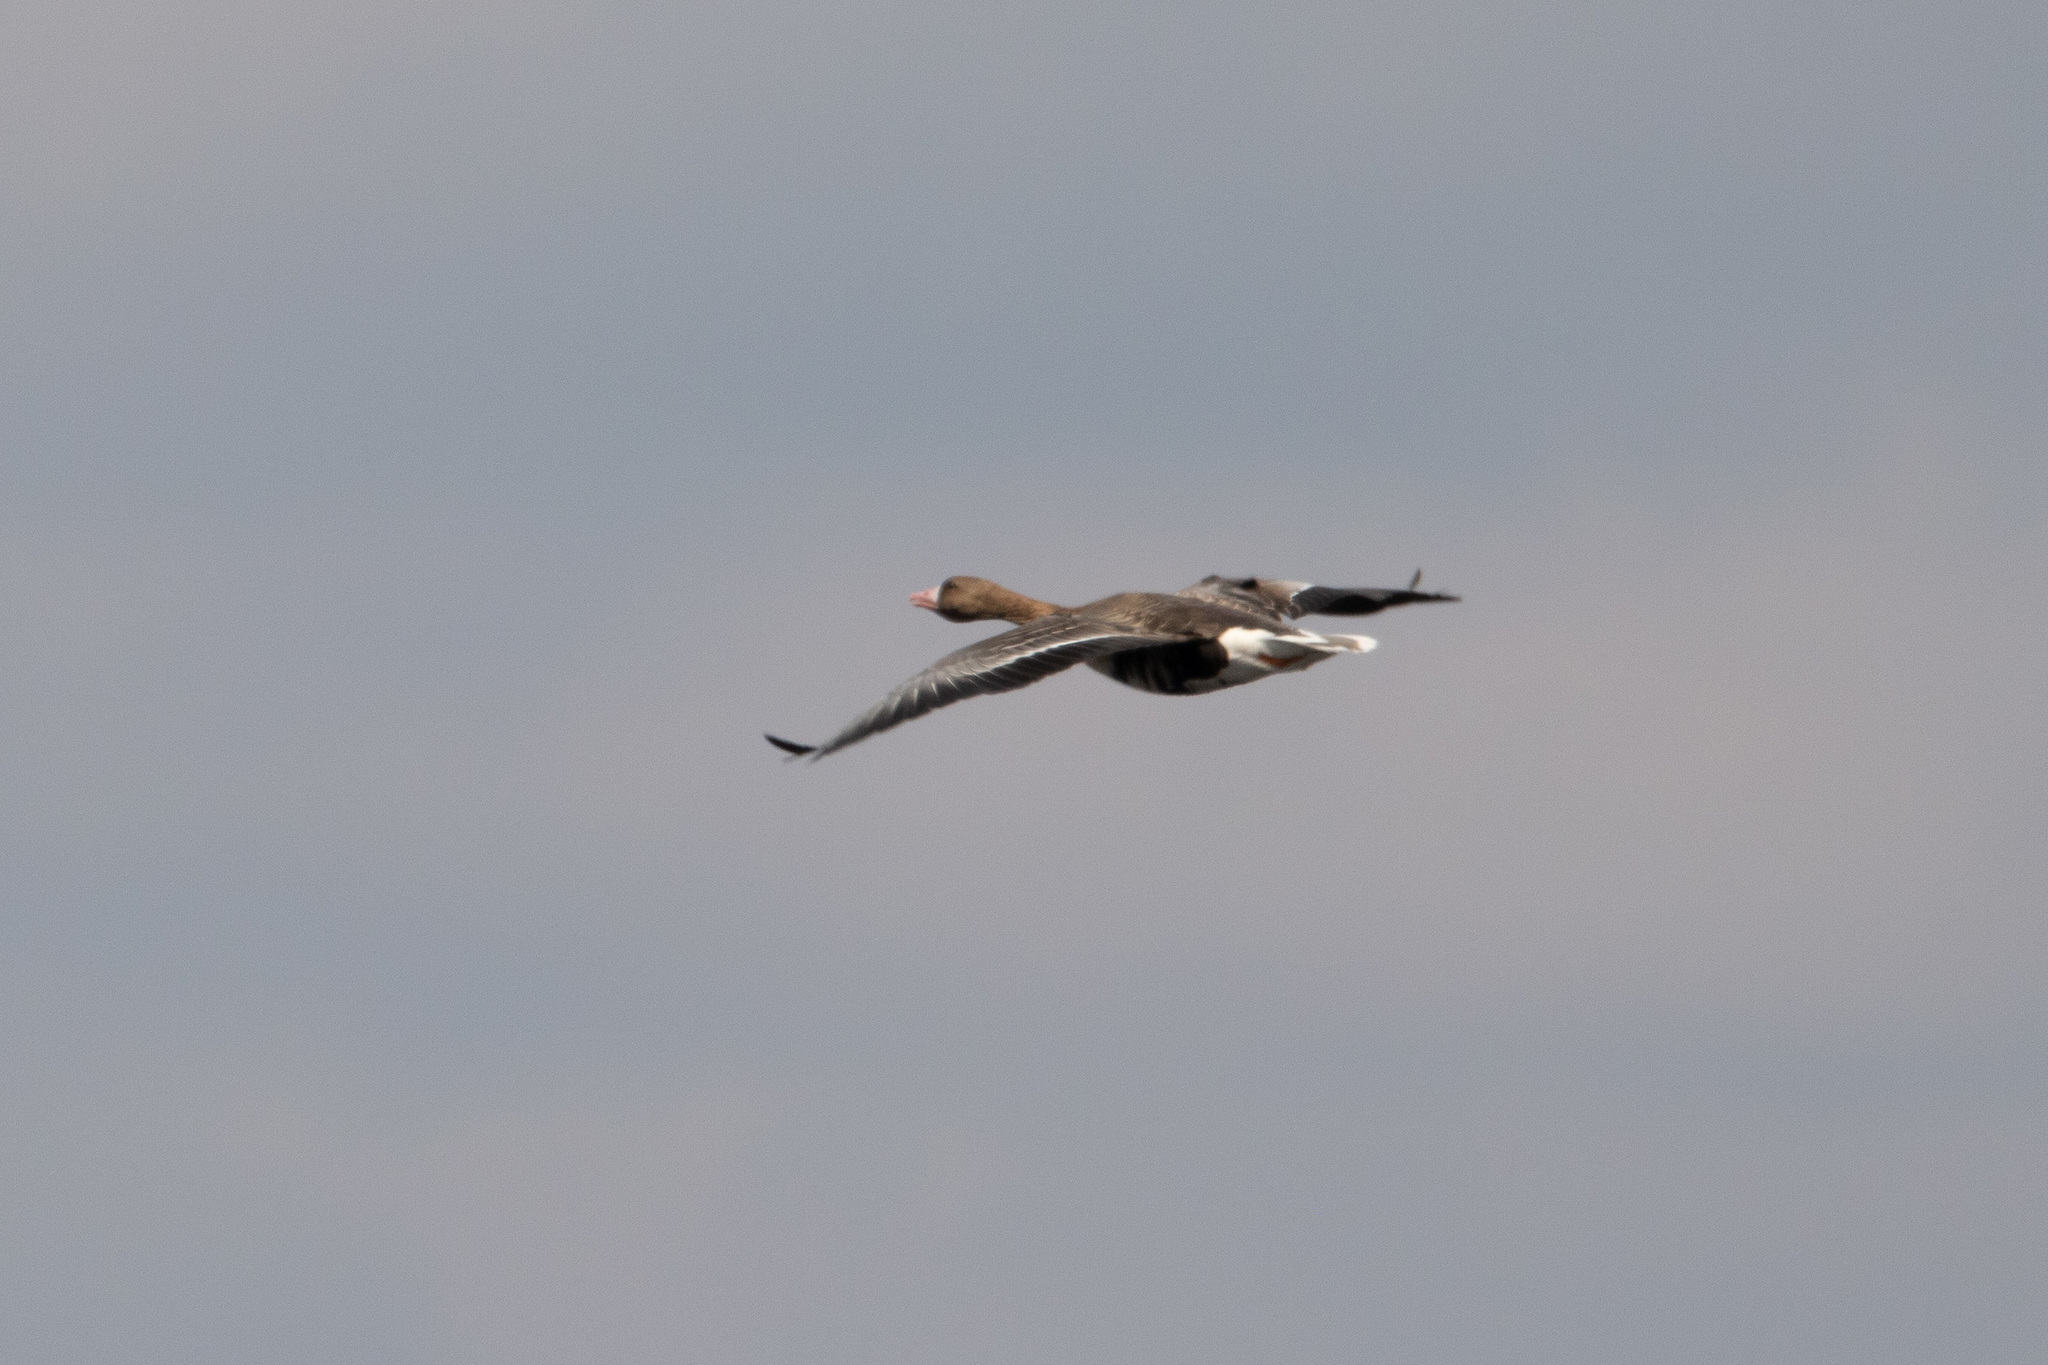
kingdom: Animalia
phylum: Chordata
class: Aves
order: Anseriformes
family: Anatidae
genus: Anser
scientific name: Anser albifrons
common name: Greater white-fronted goose
